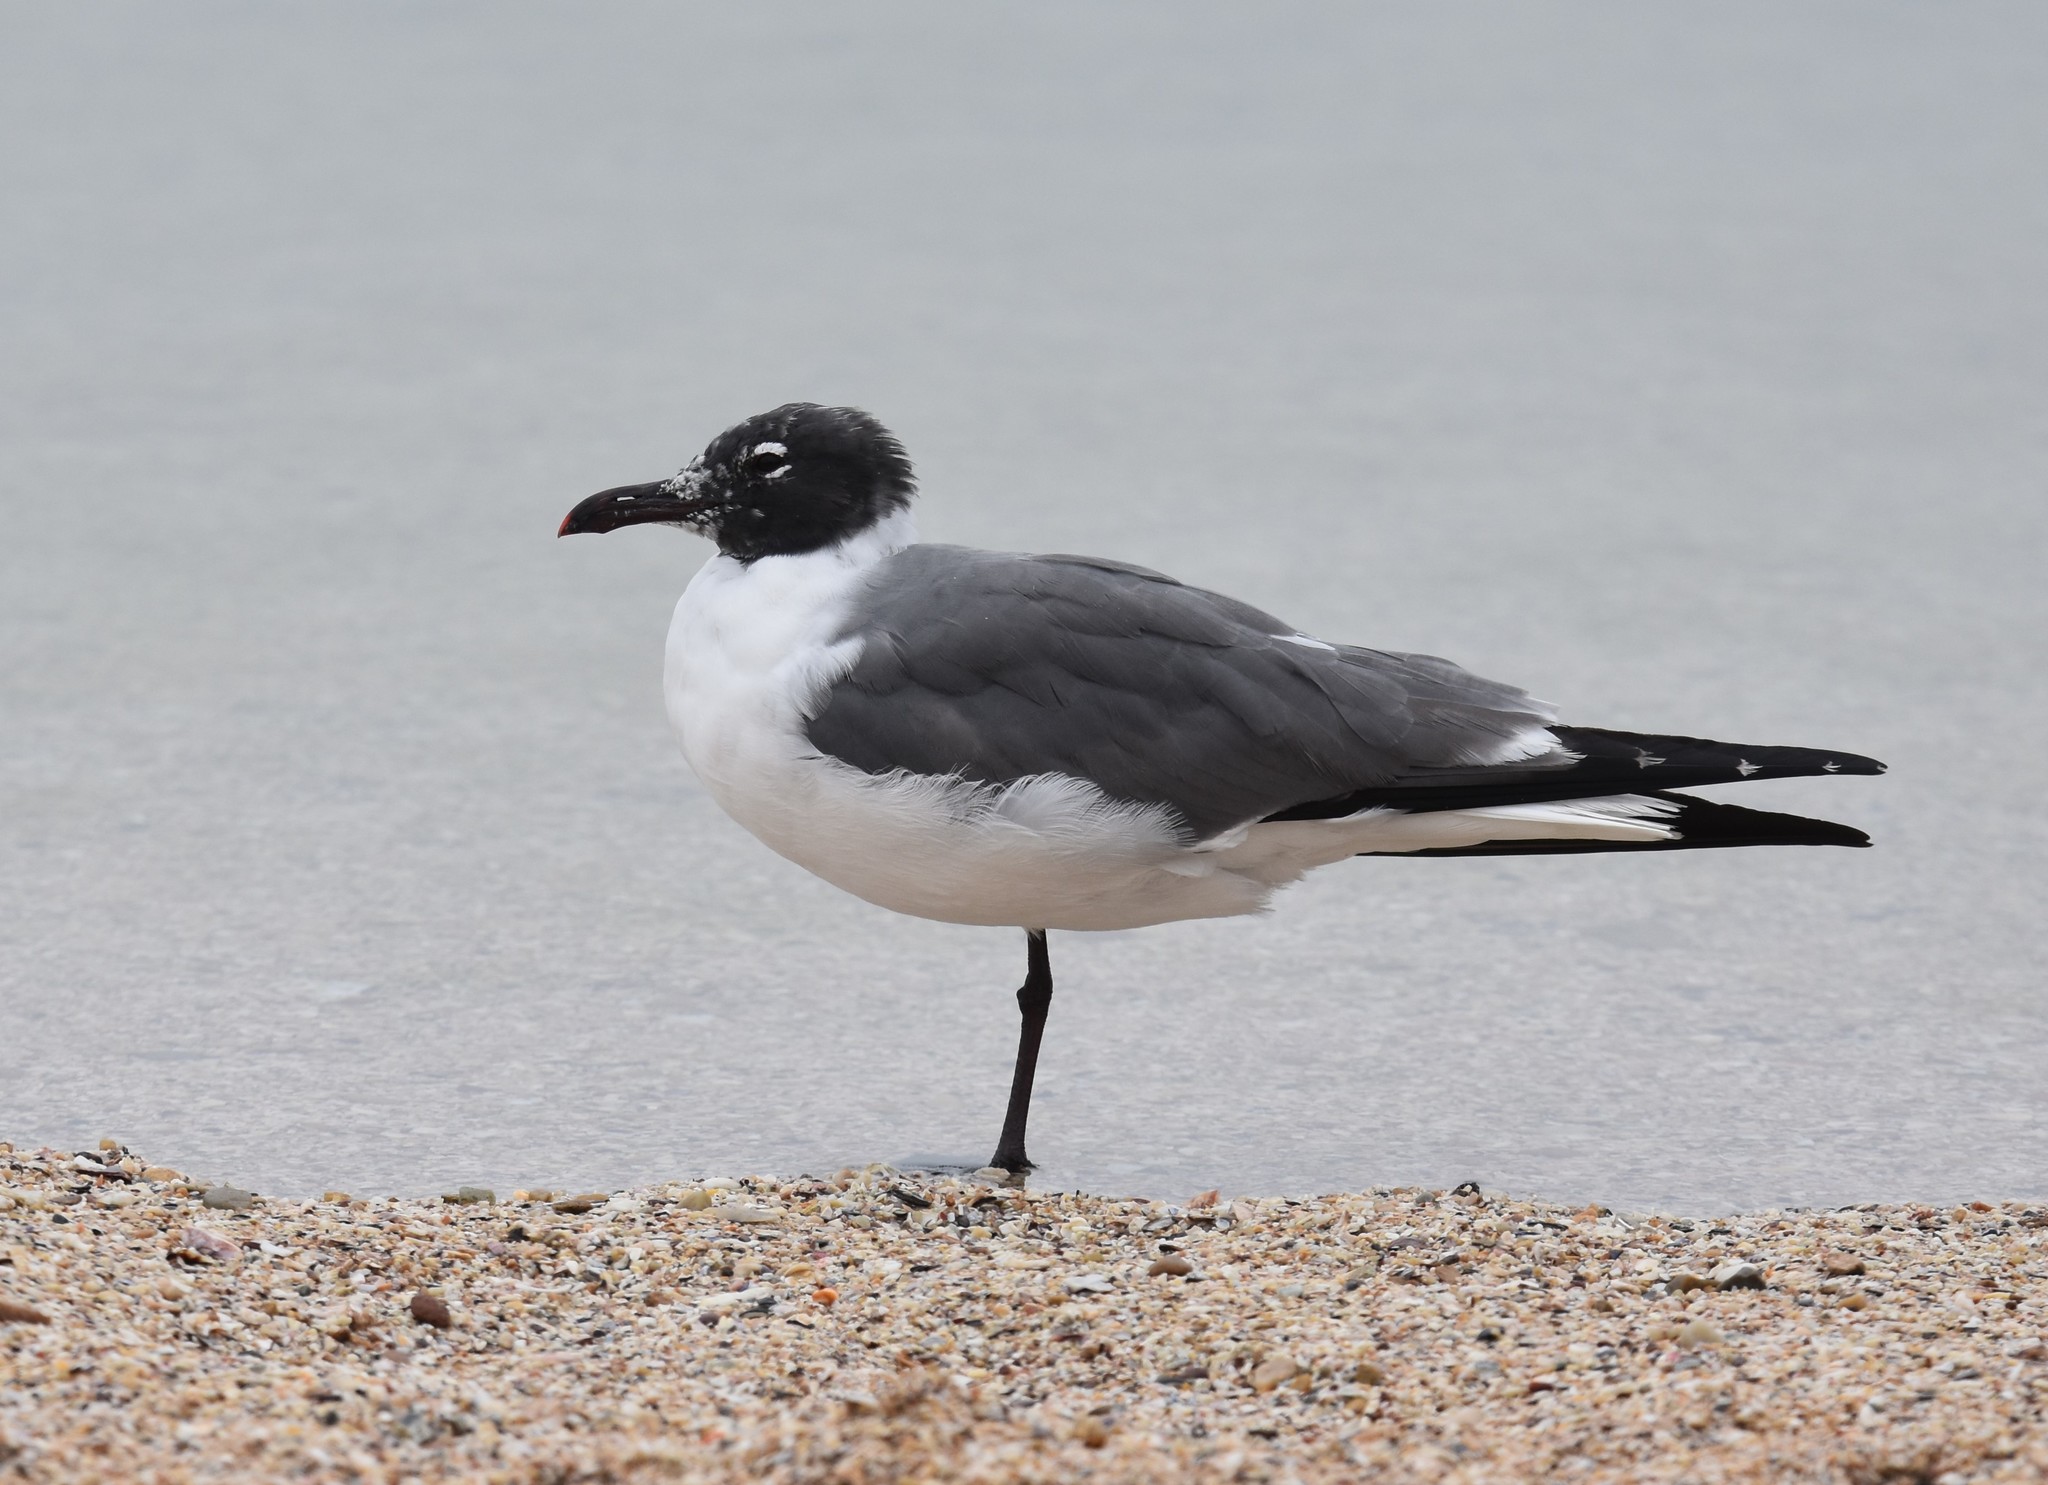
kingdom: Animalia
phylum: Chordata
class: Aves
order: Charadriiformes
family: Laridae
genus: Leucophaeus
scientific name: Leucophaeus atricilla
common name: Laughing gull
